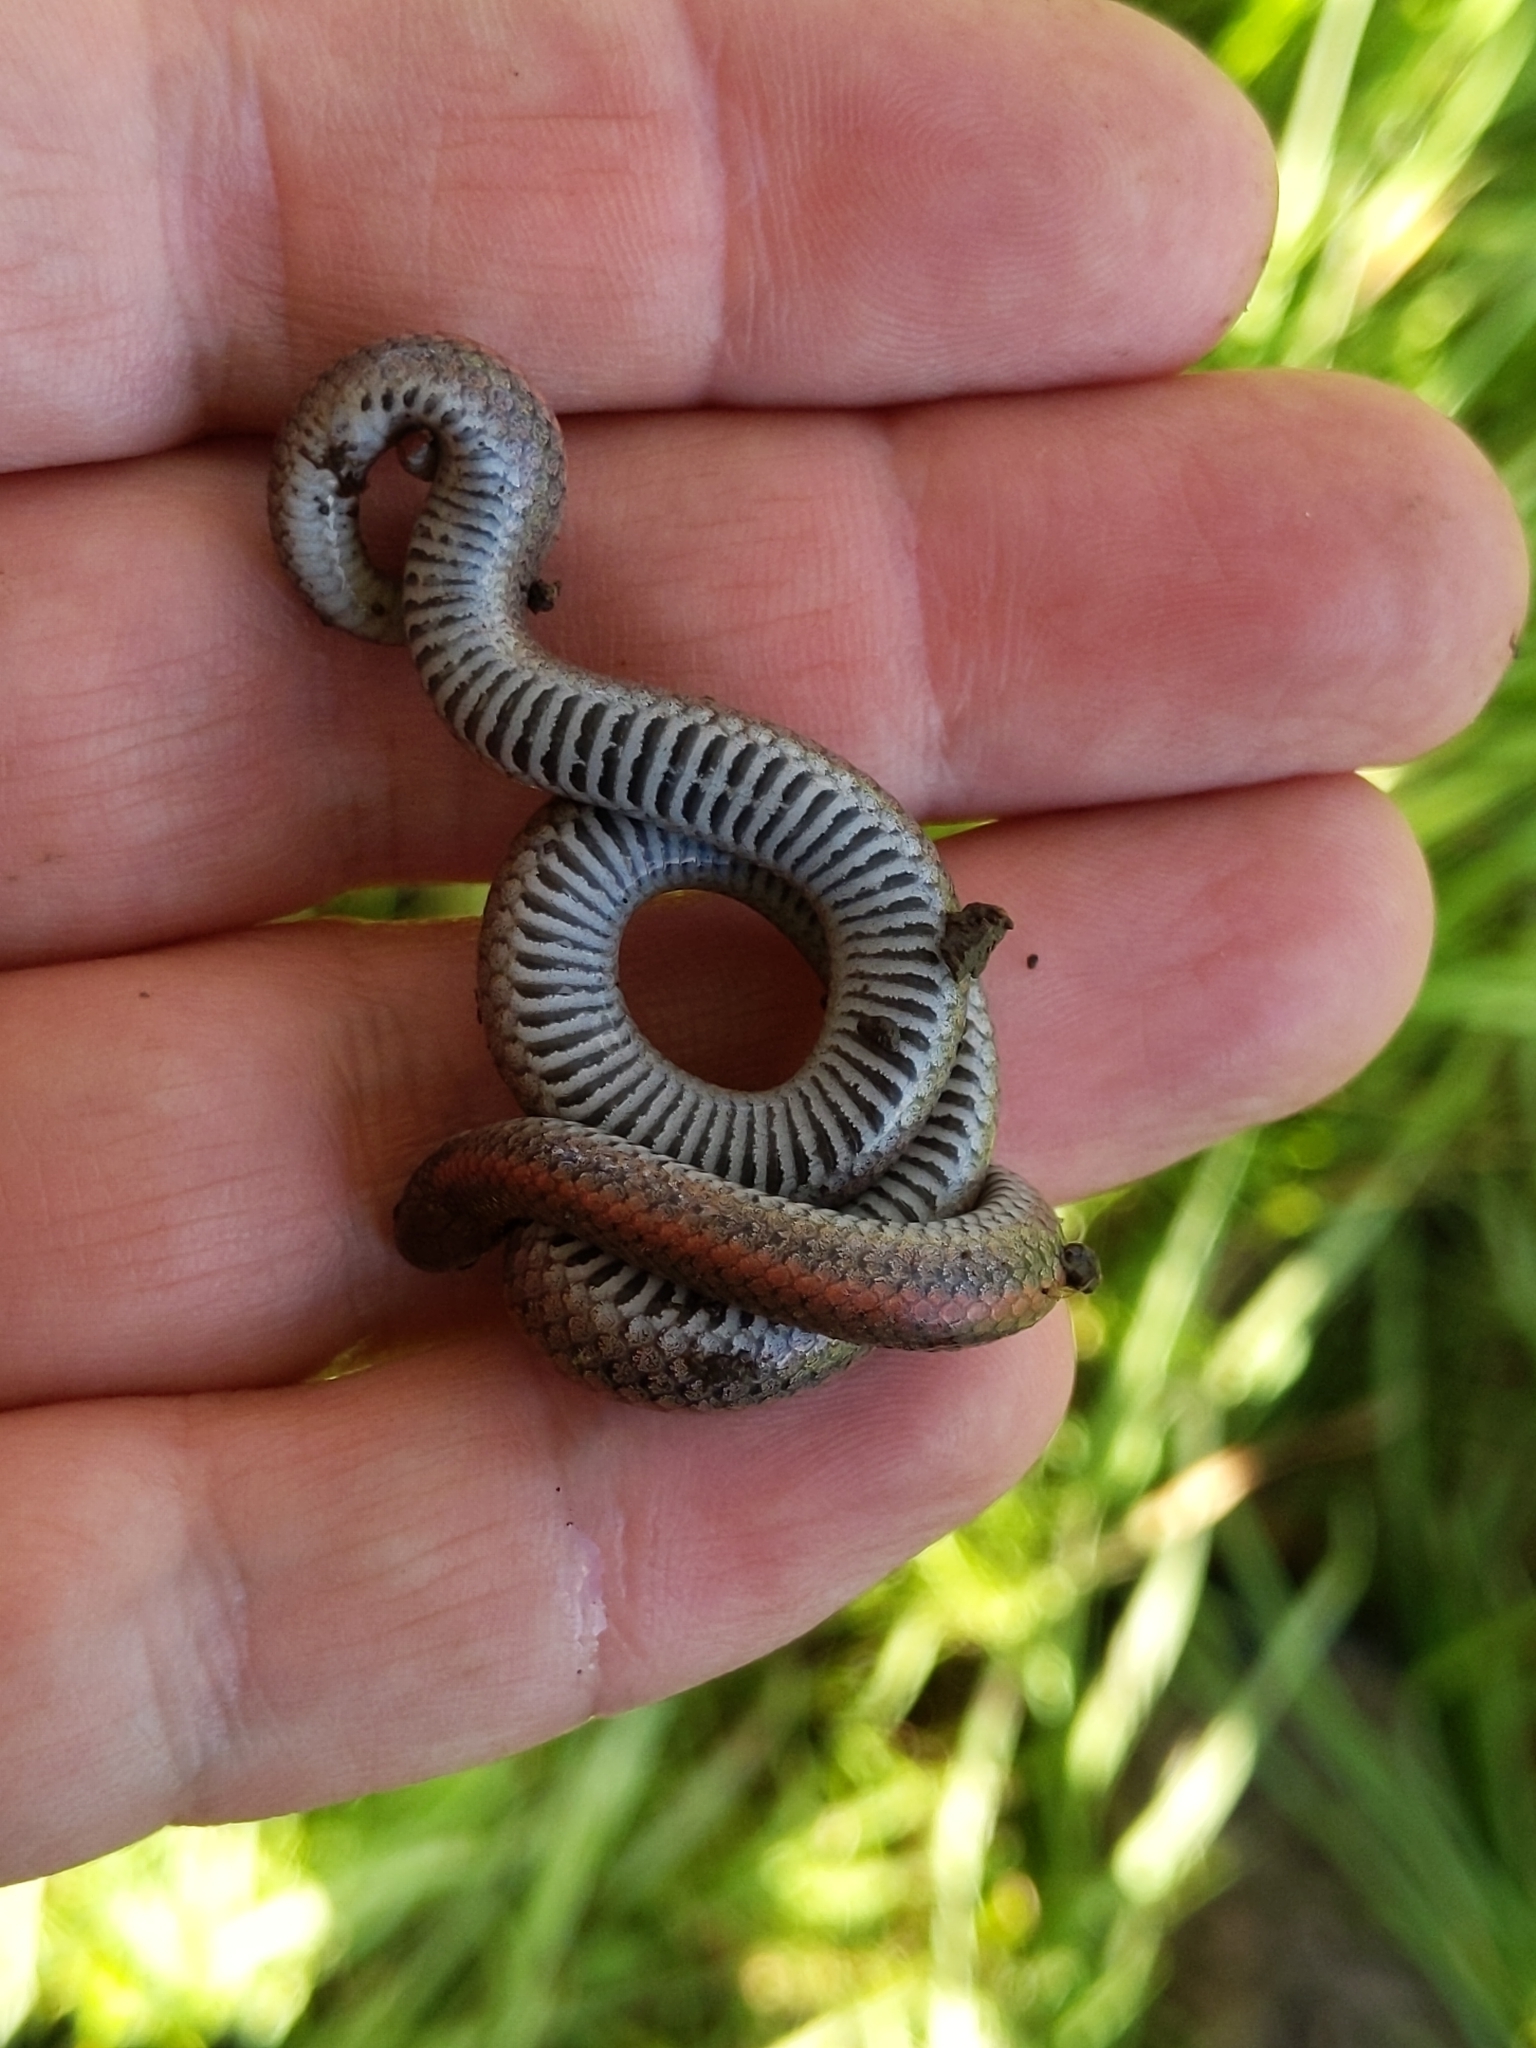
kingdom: Animalia
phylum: Chordata
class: Squamata
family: Colubridae
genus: Contia
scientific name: Contia tenuis
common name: Sharptail snake
